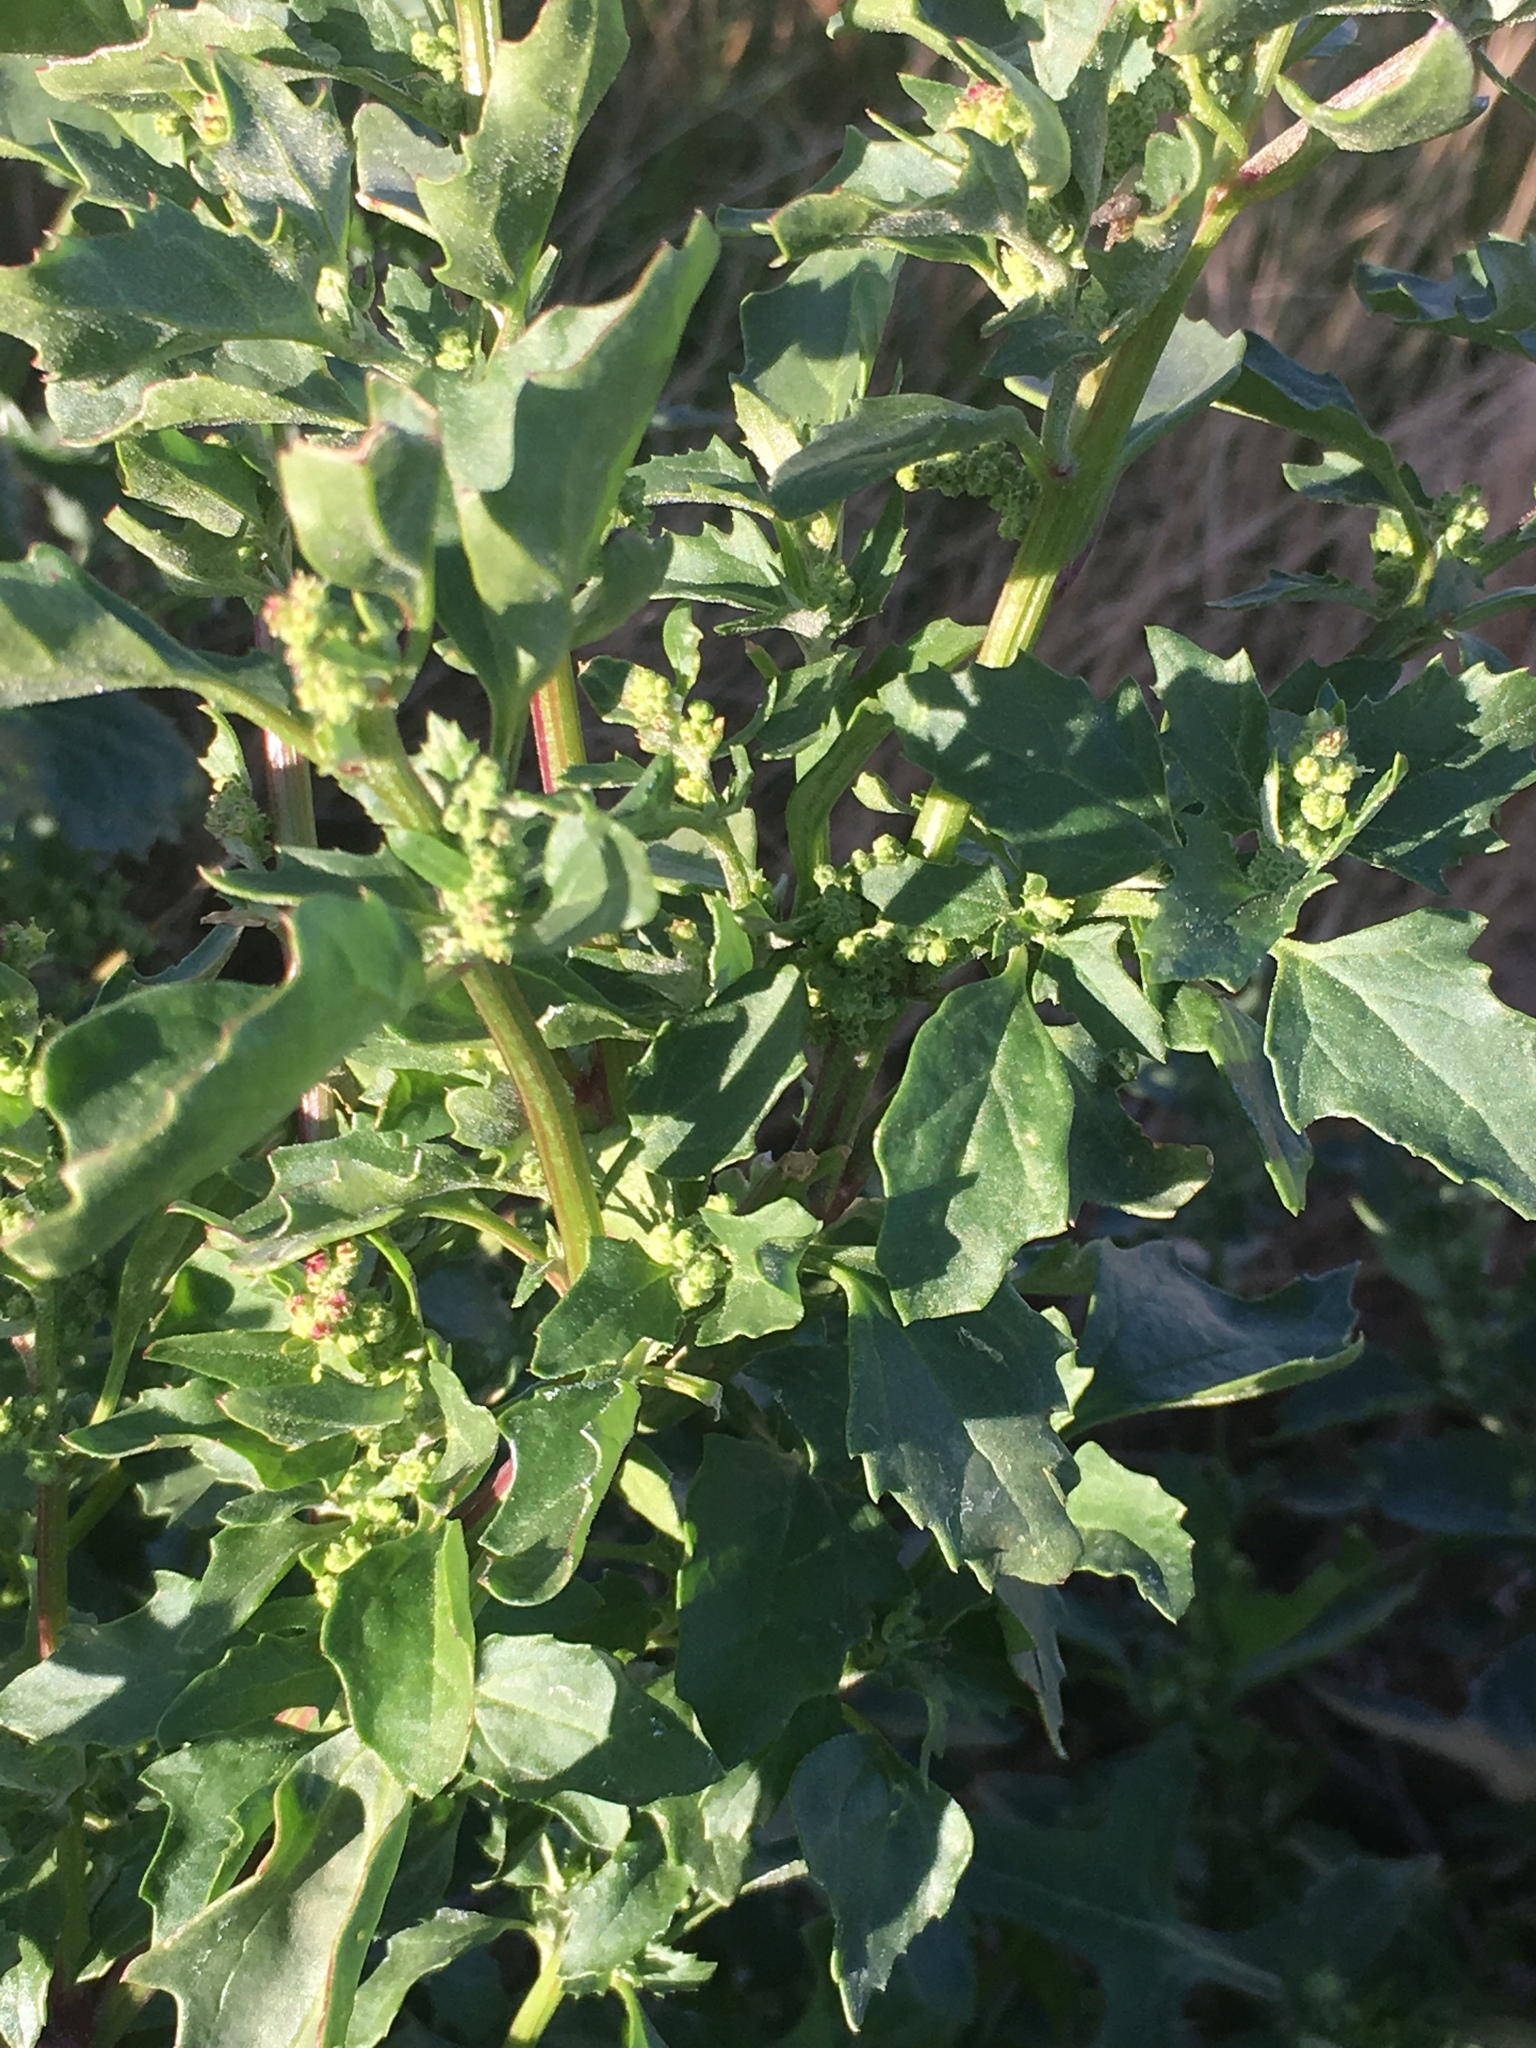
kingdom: Plantae
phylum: Tracheophyta
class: Magnoliopsida
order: Caryophyllales
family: Amaranthaceae
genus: Chenopodiastrum
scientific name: Chenopodiastrum murale
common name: Sowbane
